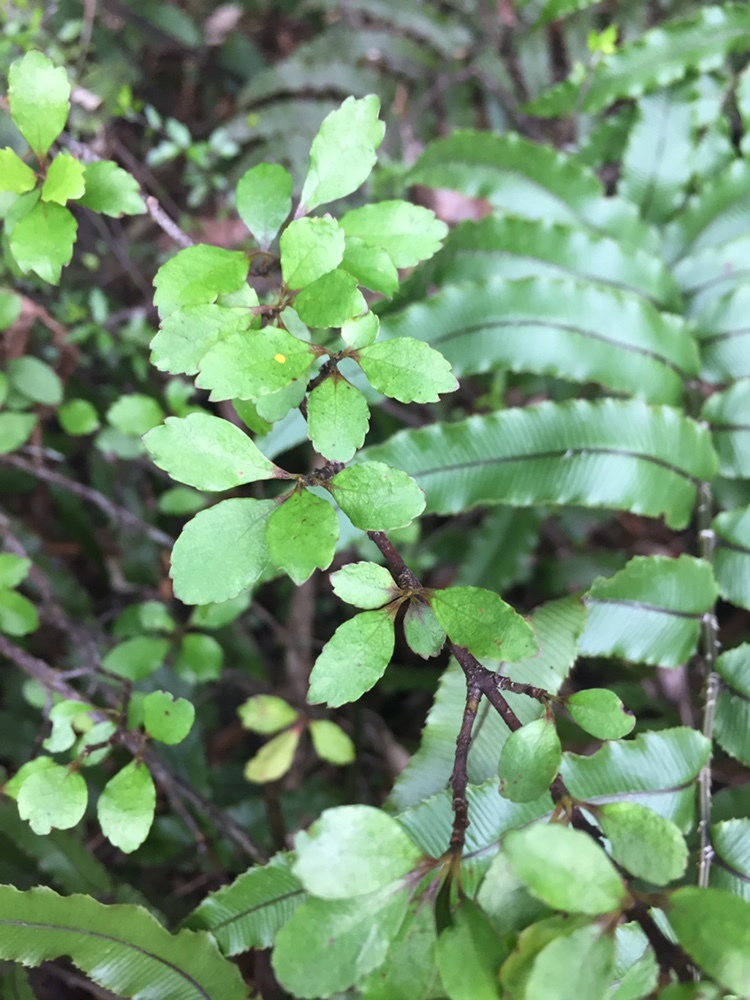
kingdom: Plantae
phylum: Tracheophyta
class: Magnoliopsida
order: Oxalidales
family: Elaeocarpaceae
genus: Aristotelia
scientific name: Aristotelia fruticosa
